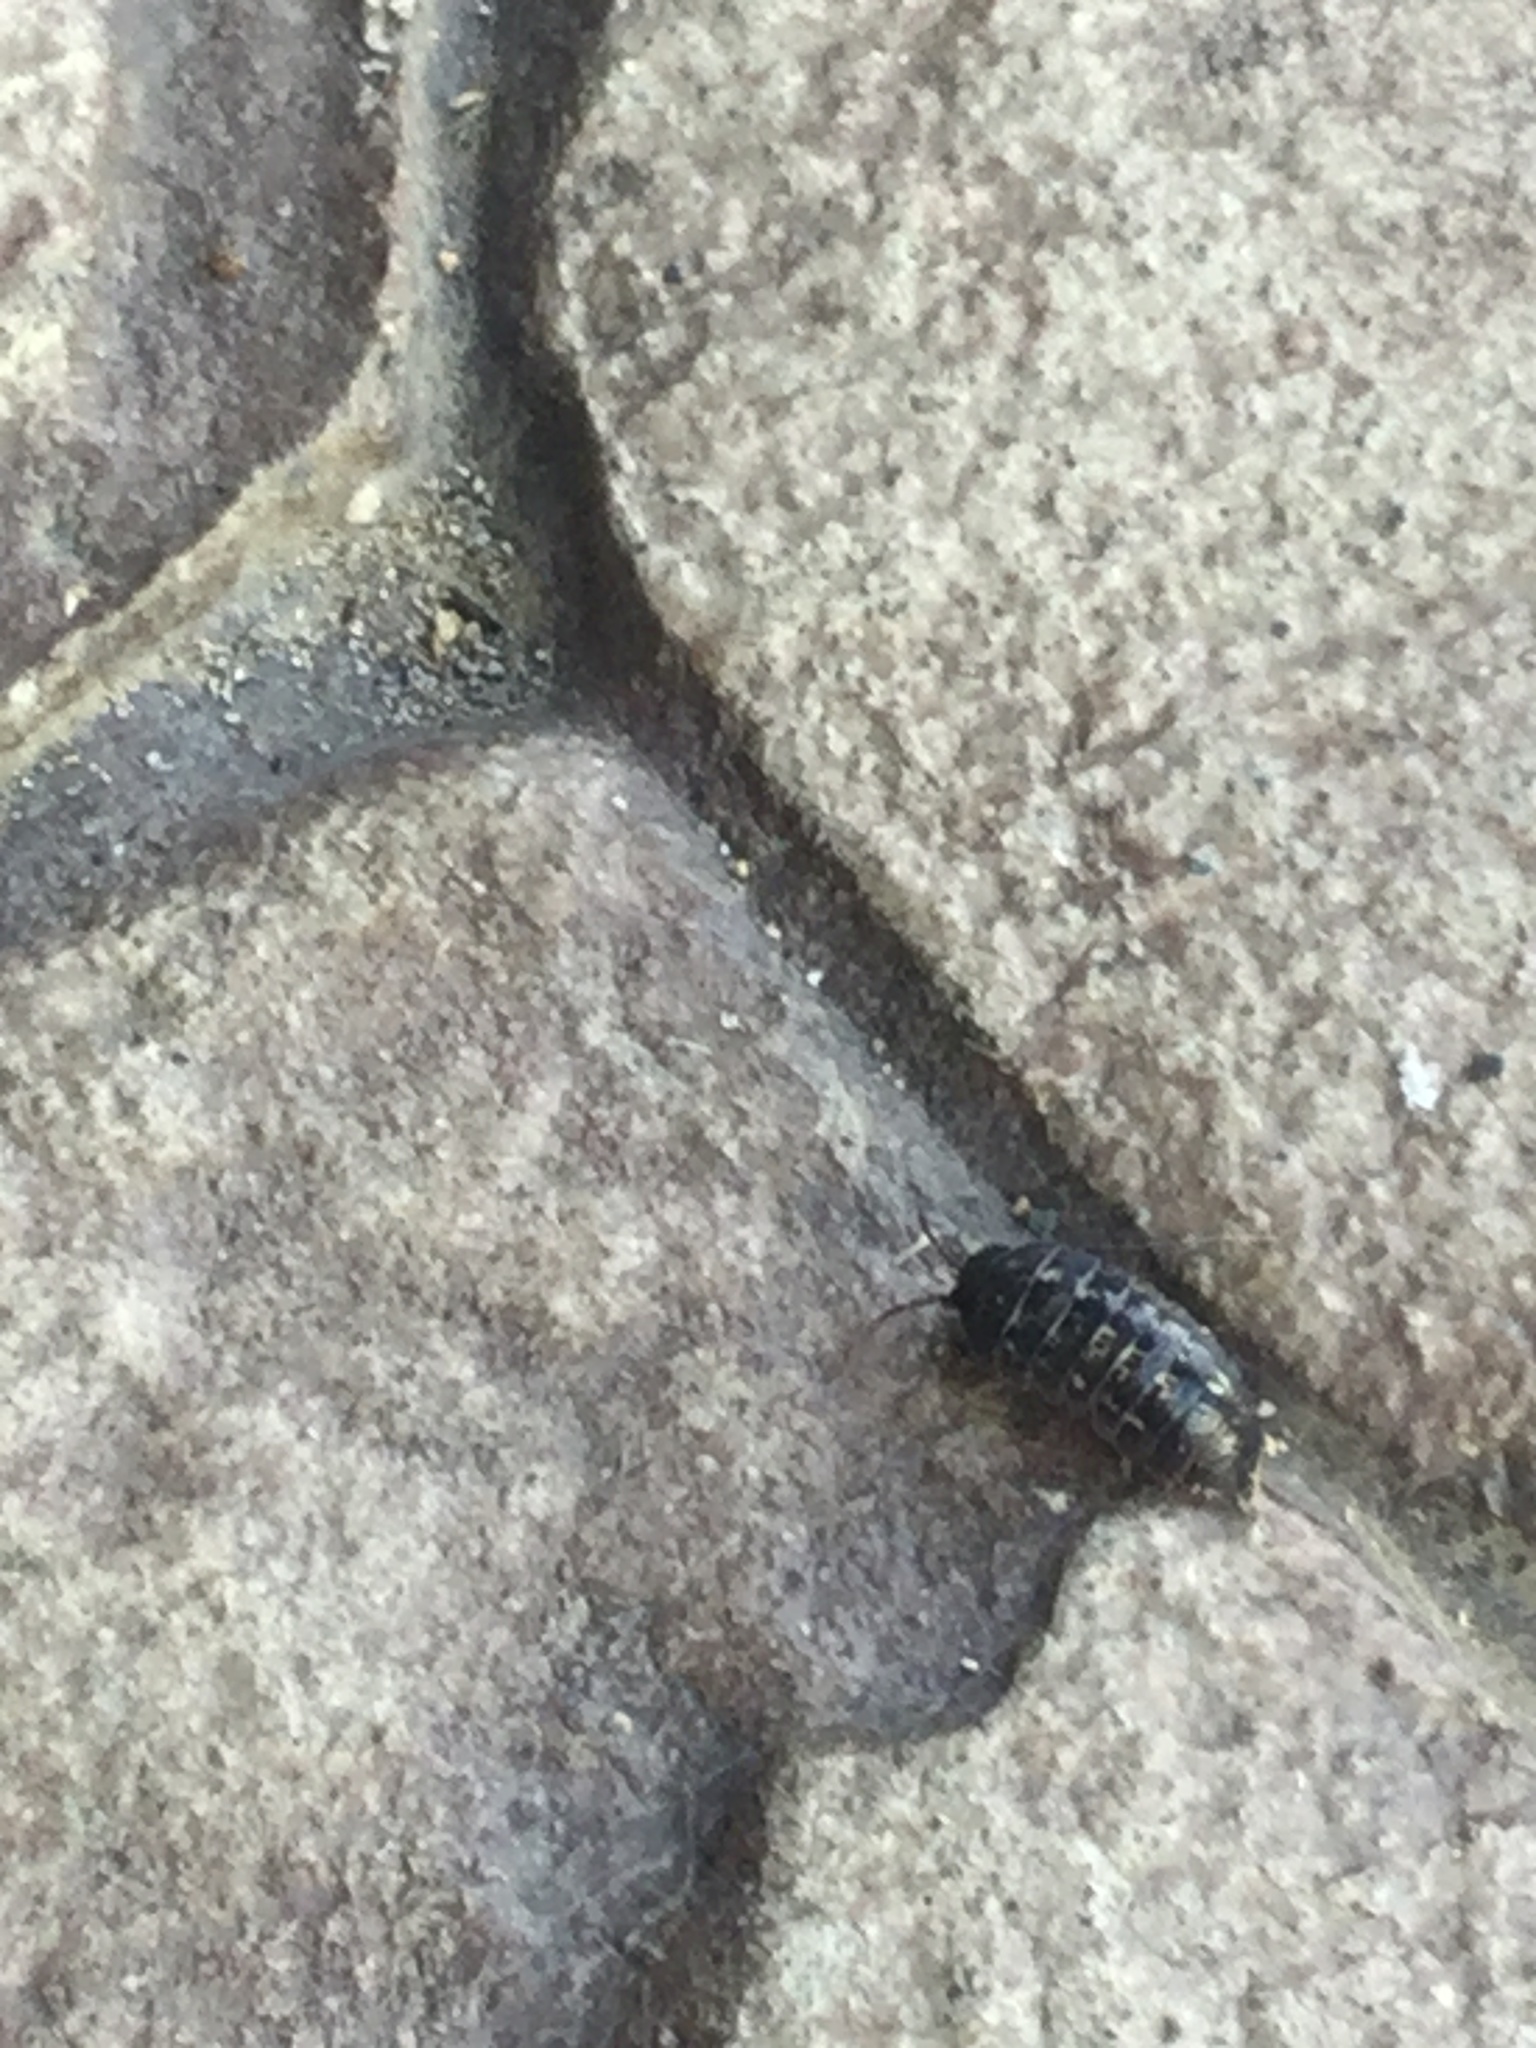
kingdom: Animalia
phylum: Arthropoda
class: Malacostraca
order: Isopoda
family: Armadillidiidae
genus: Armadillidium
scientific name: Armadillidium vulgare
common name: Common pill woodlouse
